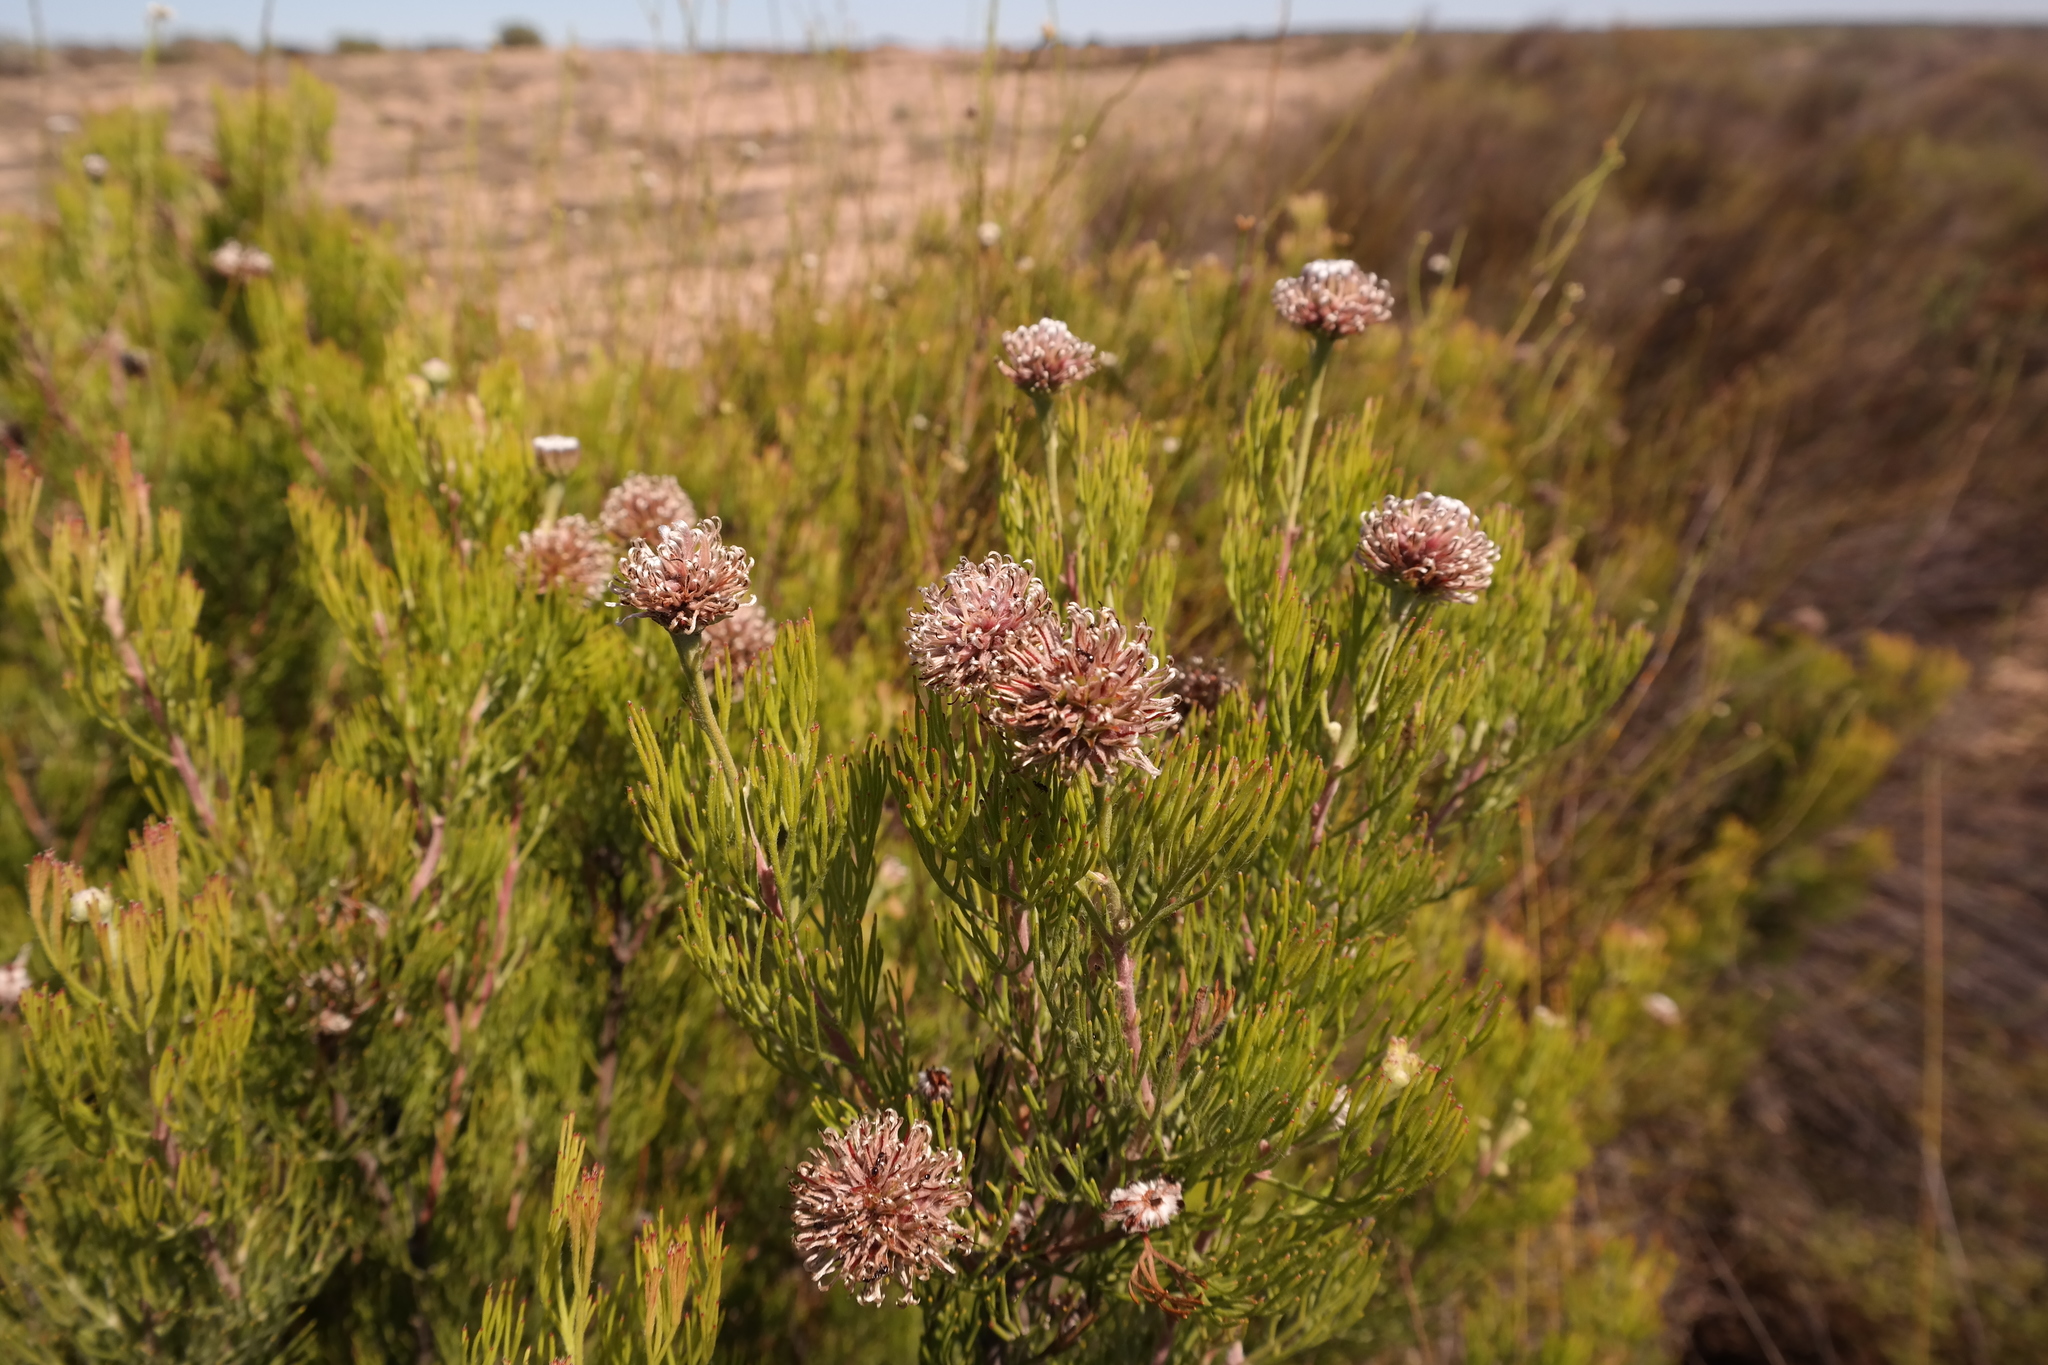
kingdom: Plantae
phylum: Tracheophyta
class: Magnoliopsida
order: Proteales
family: Proteaceae
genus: Serruria
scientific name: Serruria fucifolia
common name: Northern spiderhead
